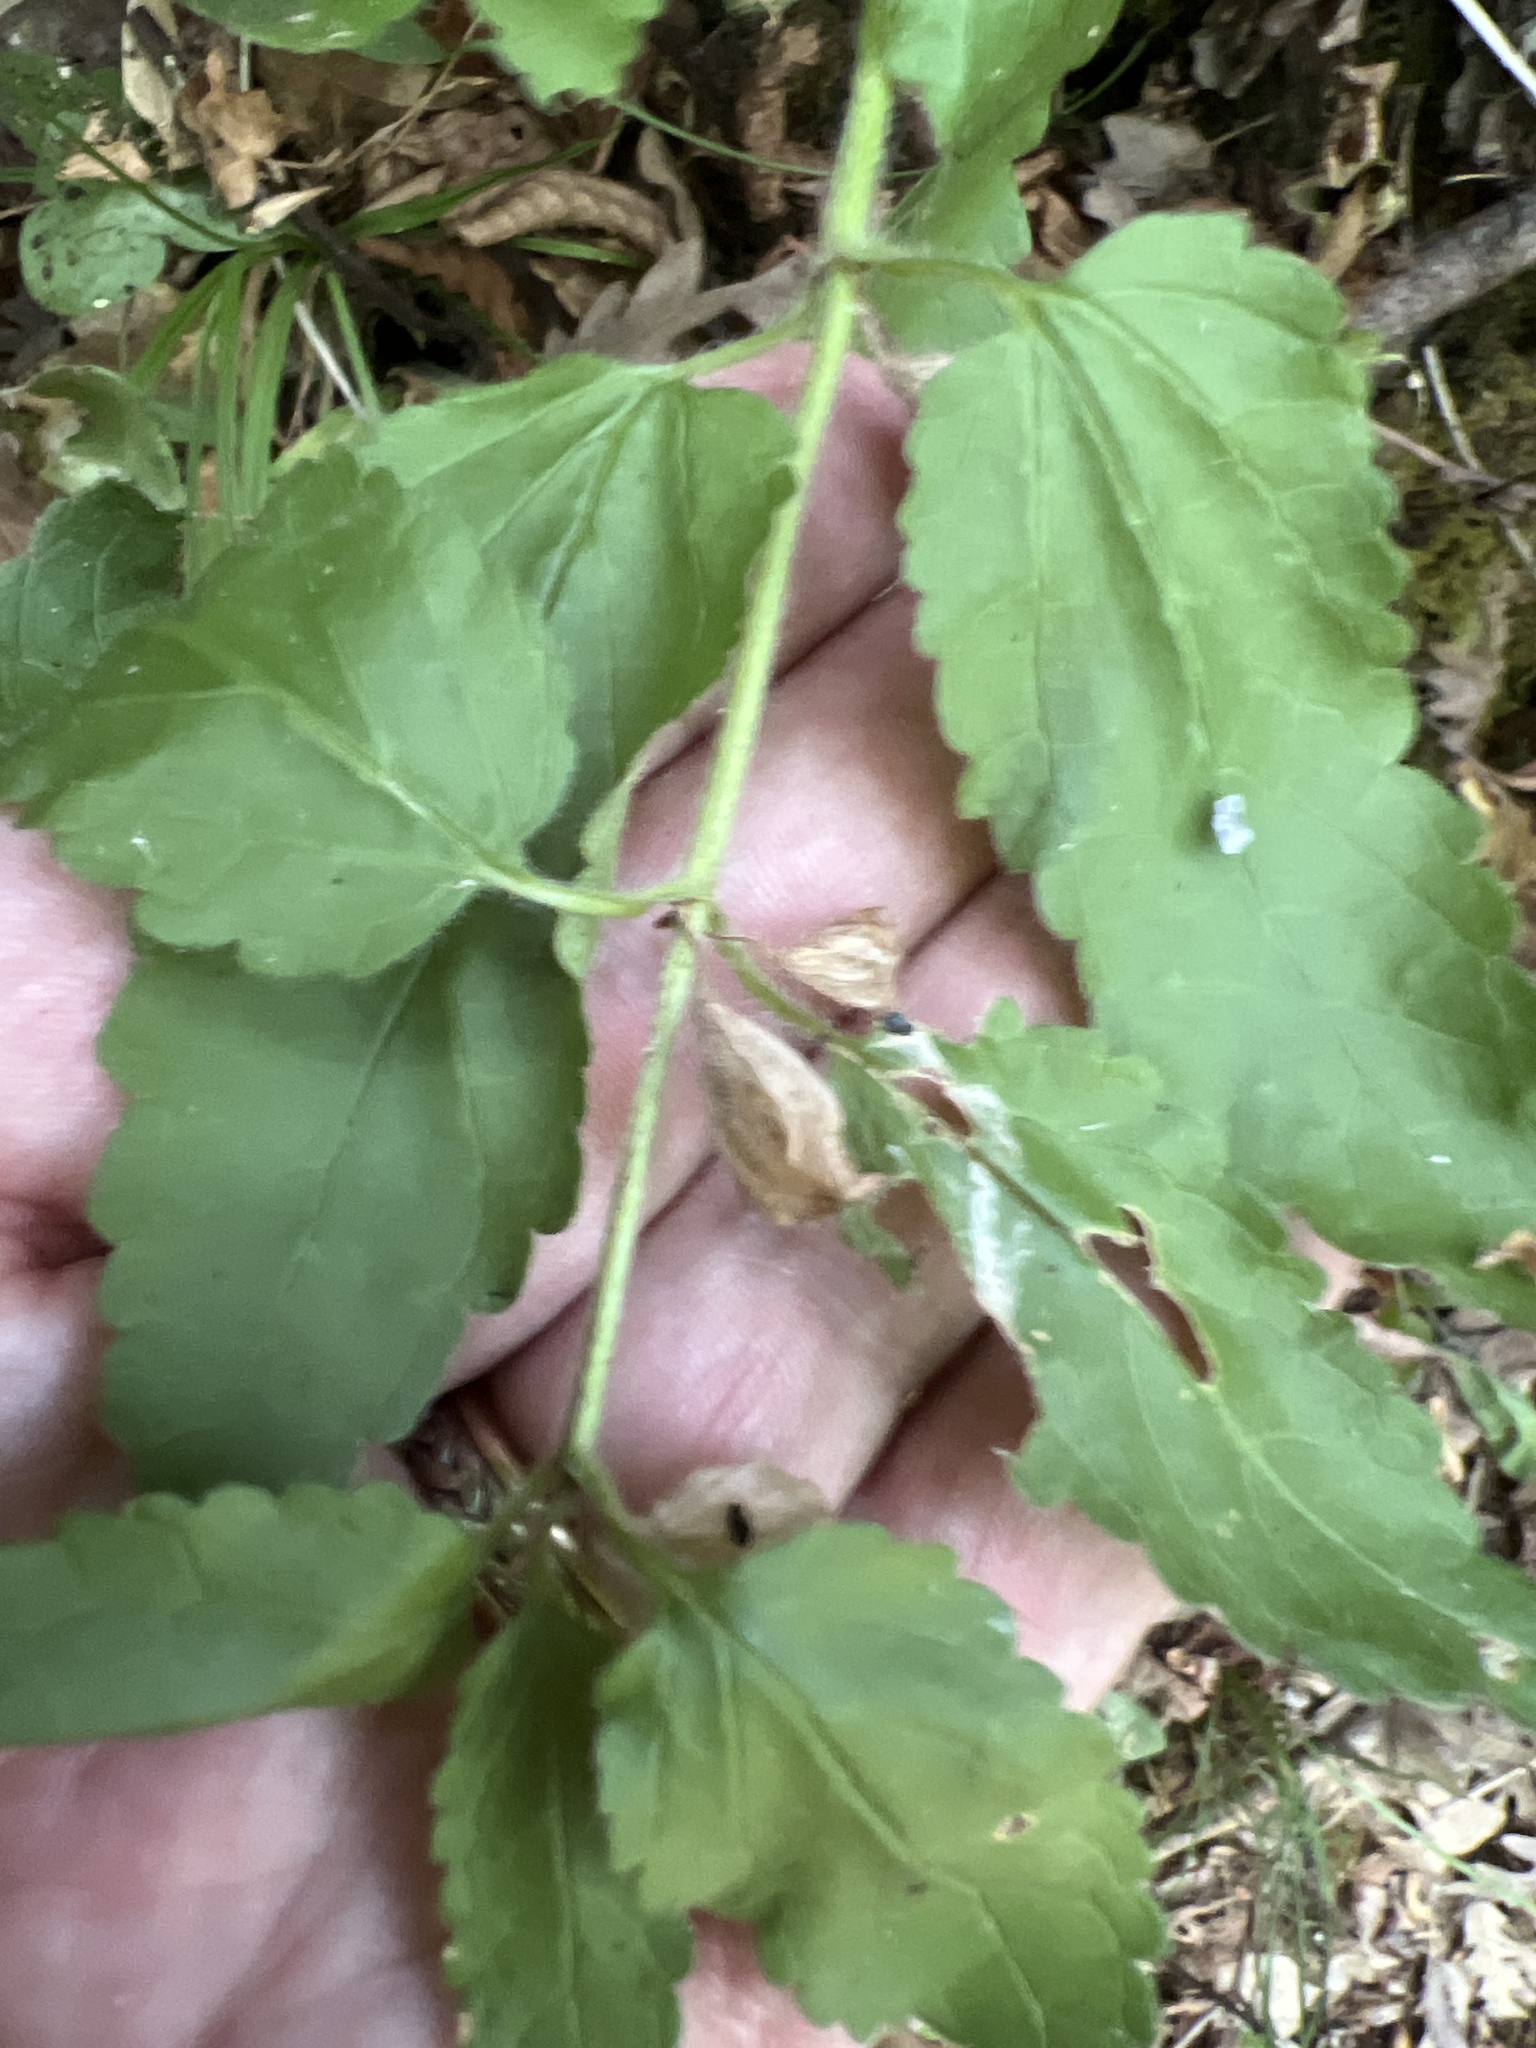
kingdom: Plantae
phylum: Tracheophyta
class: Magnoliopsida
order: Lamiales
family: Lamiaceae
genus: Melittis
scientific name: Melittis melissophyllum
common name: Bastard balm
